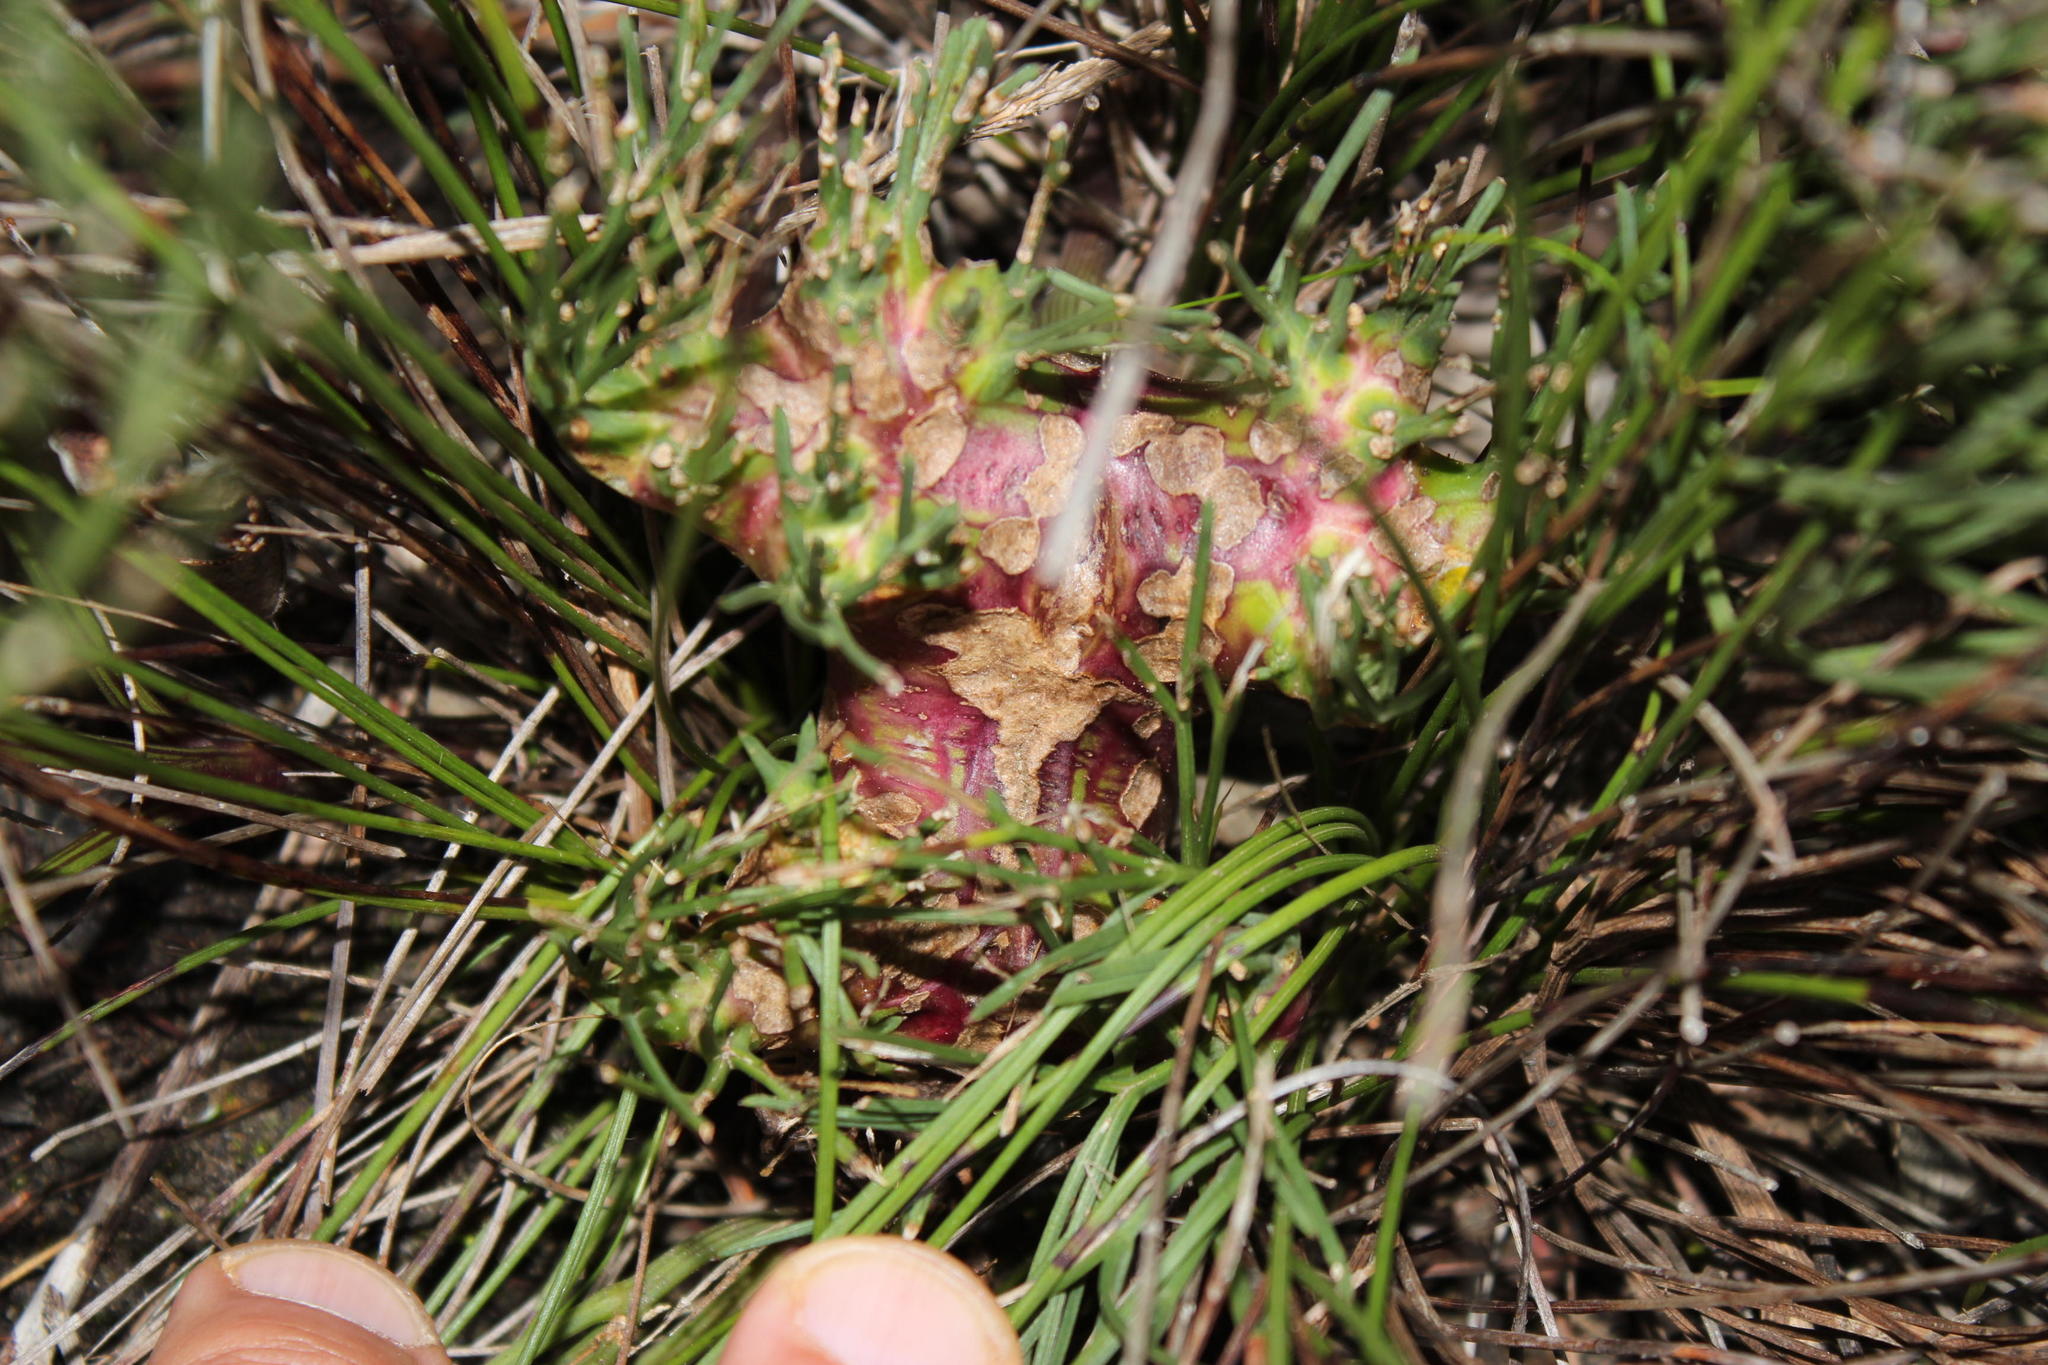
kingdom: Plantae
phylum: Tracheophyta
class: Magnoliopsida
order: Apiales
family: Apiaceae
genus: Nanobubon
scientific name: Nanobubon strictum
